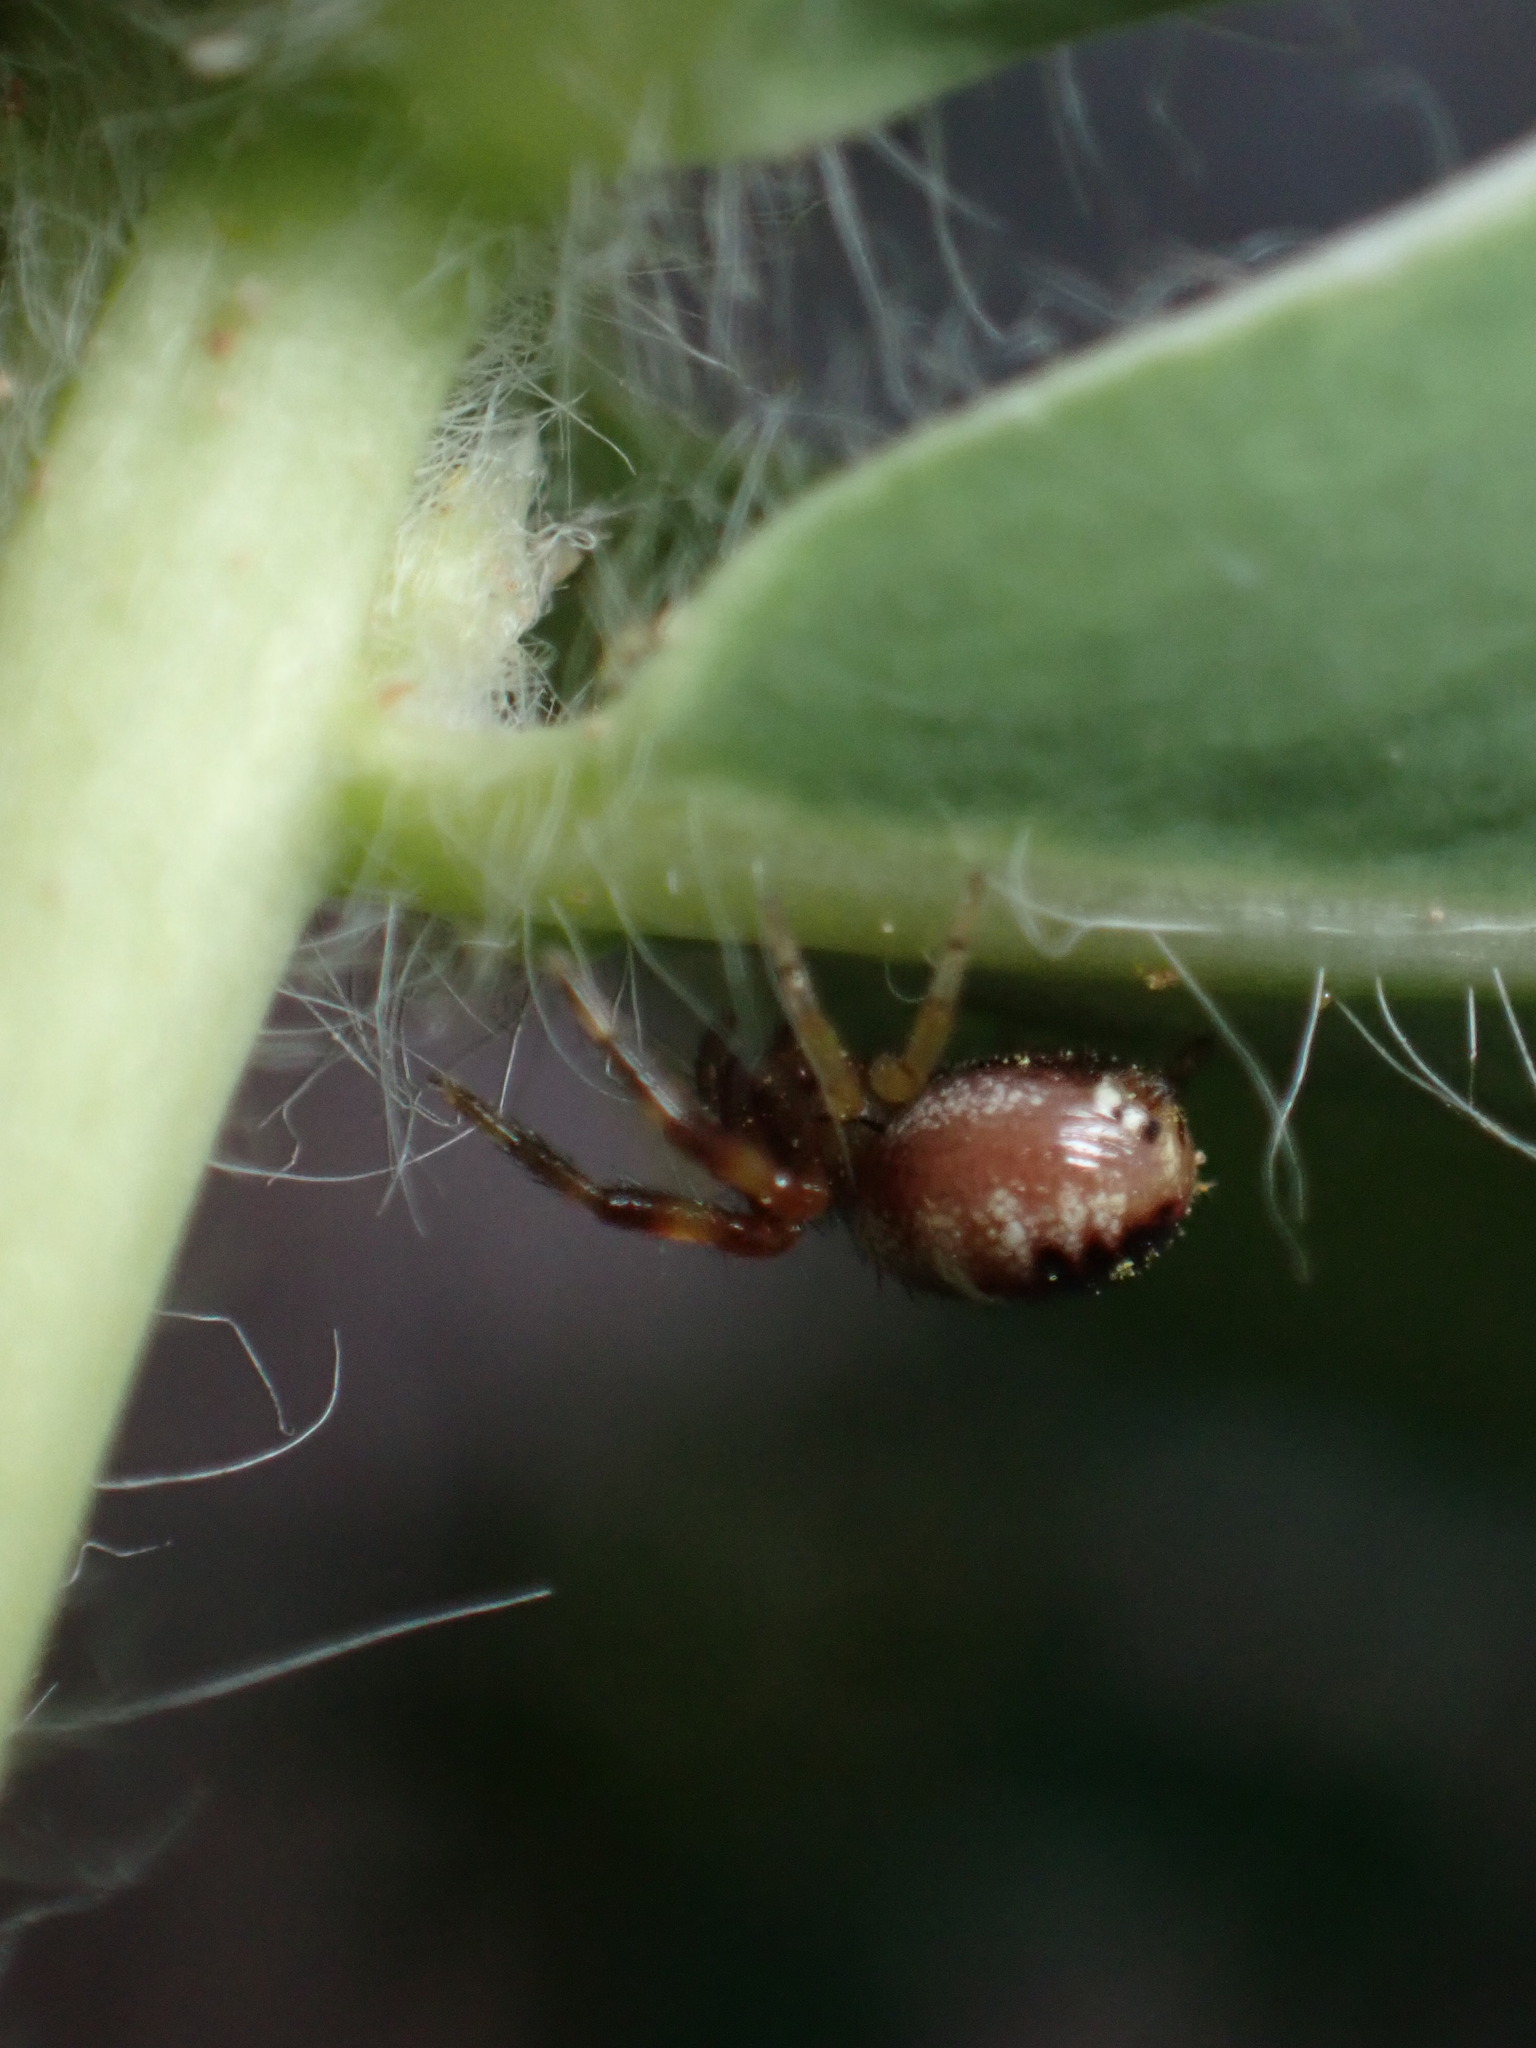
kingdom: Animalia
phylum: Arthropoda
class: Arachnida
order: Araneae
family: Thomisidae
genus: Synema
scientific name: Synema globosum
